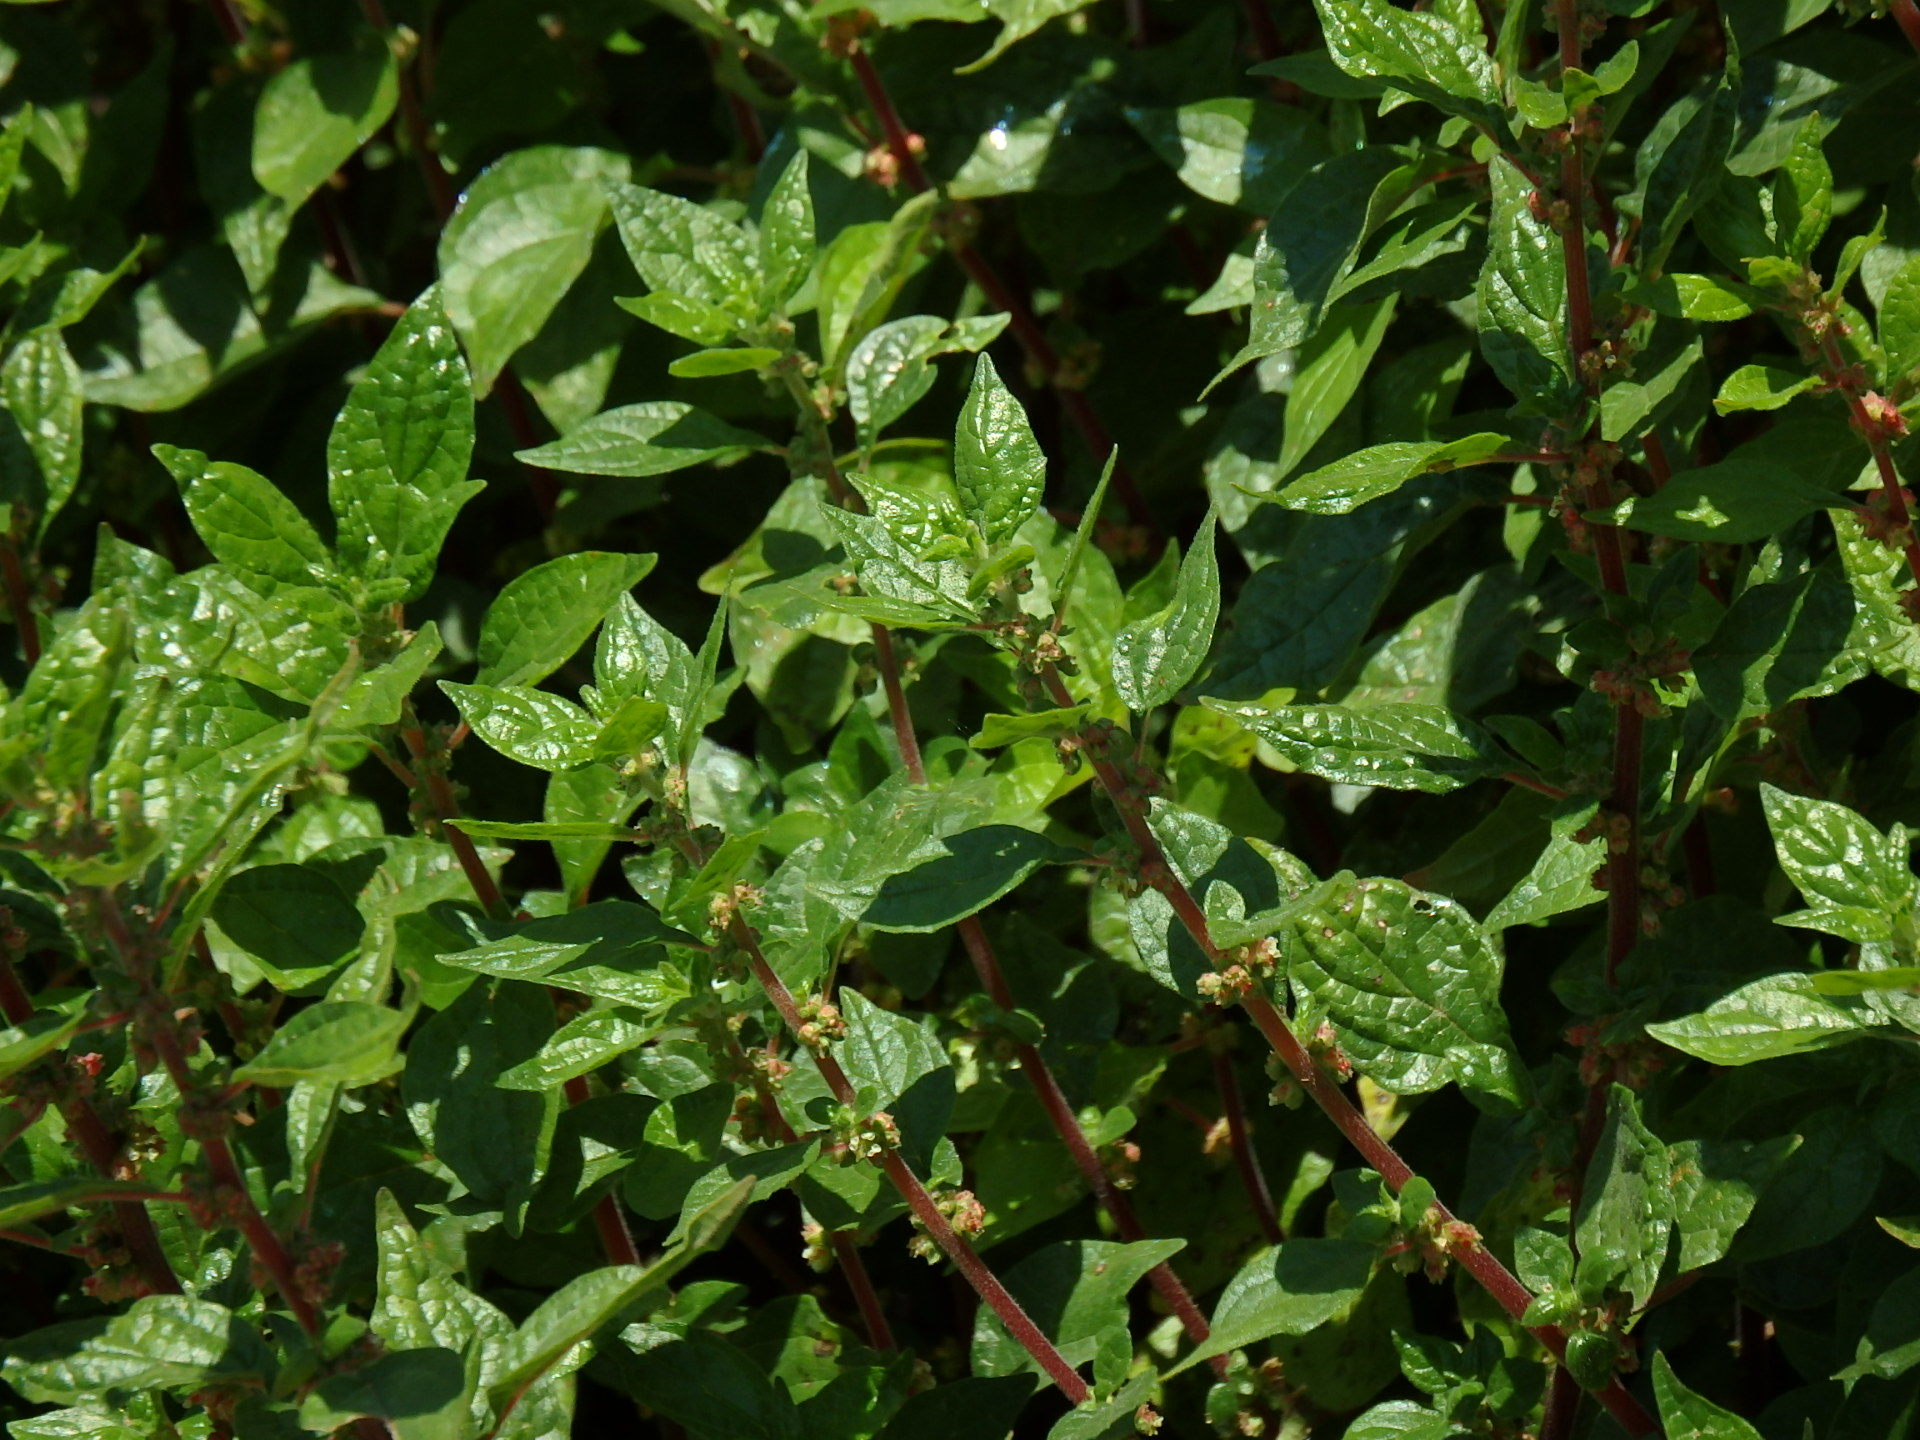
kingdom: Plantae
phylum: Tracheophyta
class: Magnoliopsida
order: Rosales
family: Urticaceae
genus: Parietaria
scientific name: Parietaria judaica
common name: Pellitory-of-the-wall
